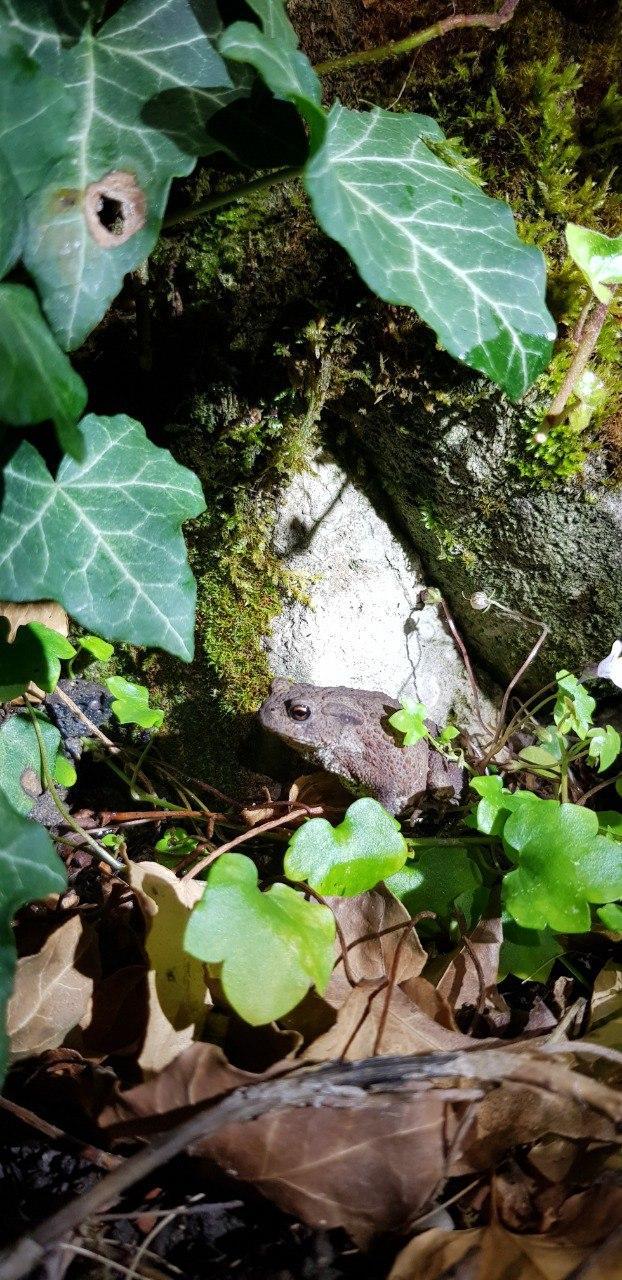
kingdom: Animalia
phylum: Chordata
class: Amphibia
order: Anura
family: Bufonidae
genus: Bufo
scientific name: Bufo bufo
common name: Common toad
